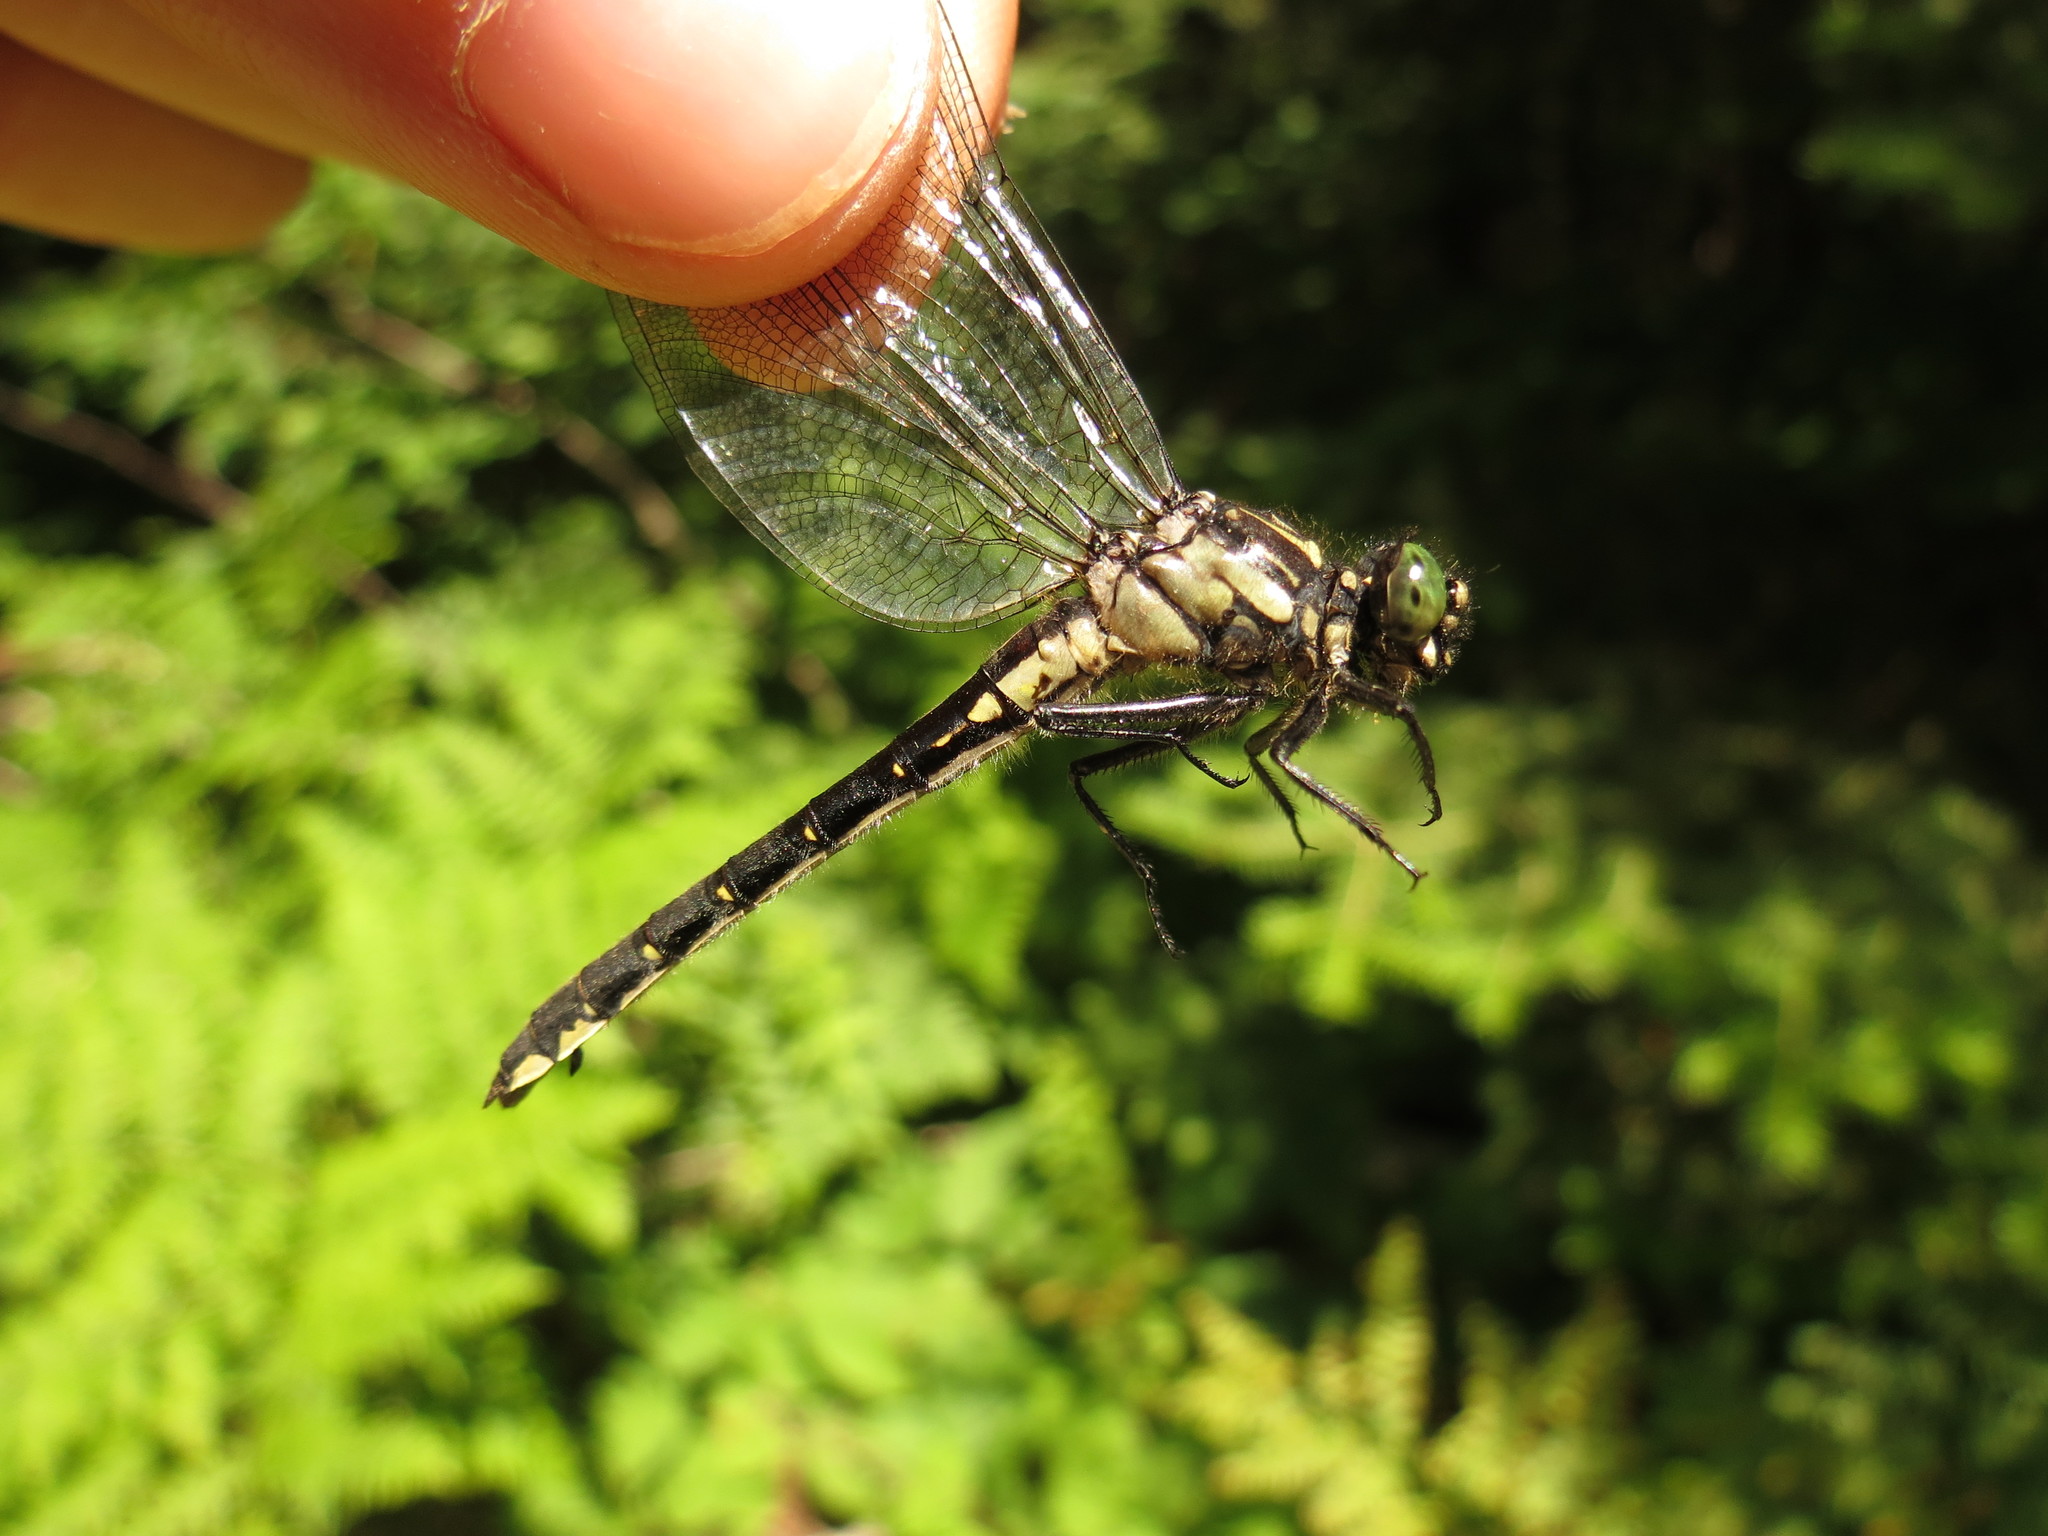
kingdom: Animalia
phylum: Arthropoda
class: Insecta
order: Odonata
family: Gomphidae
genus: Hylogomphus
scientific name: Hylogomphus adelphus
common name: Mustached clubtail
